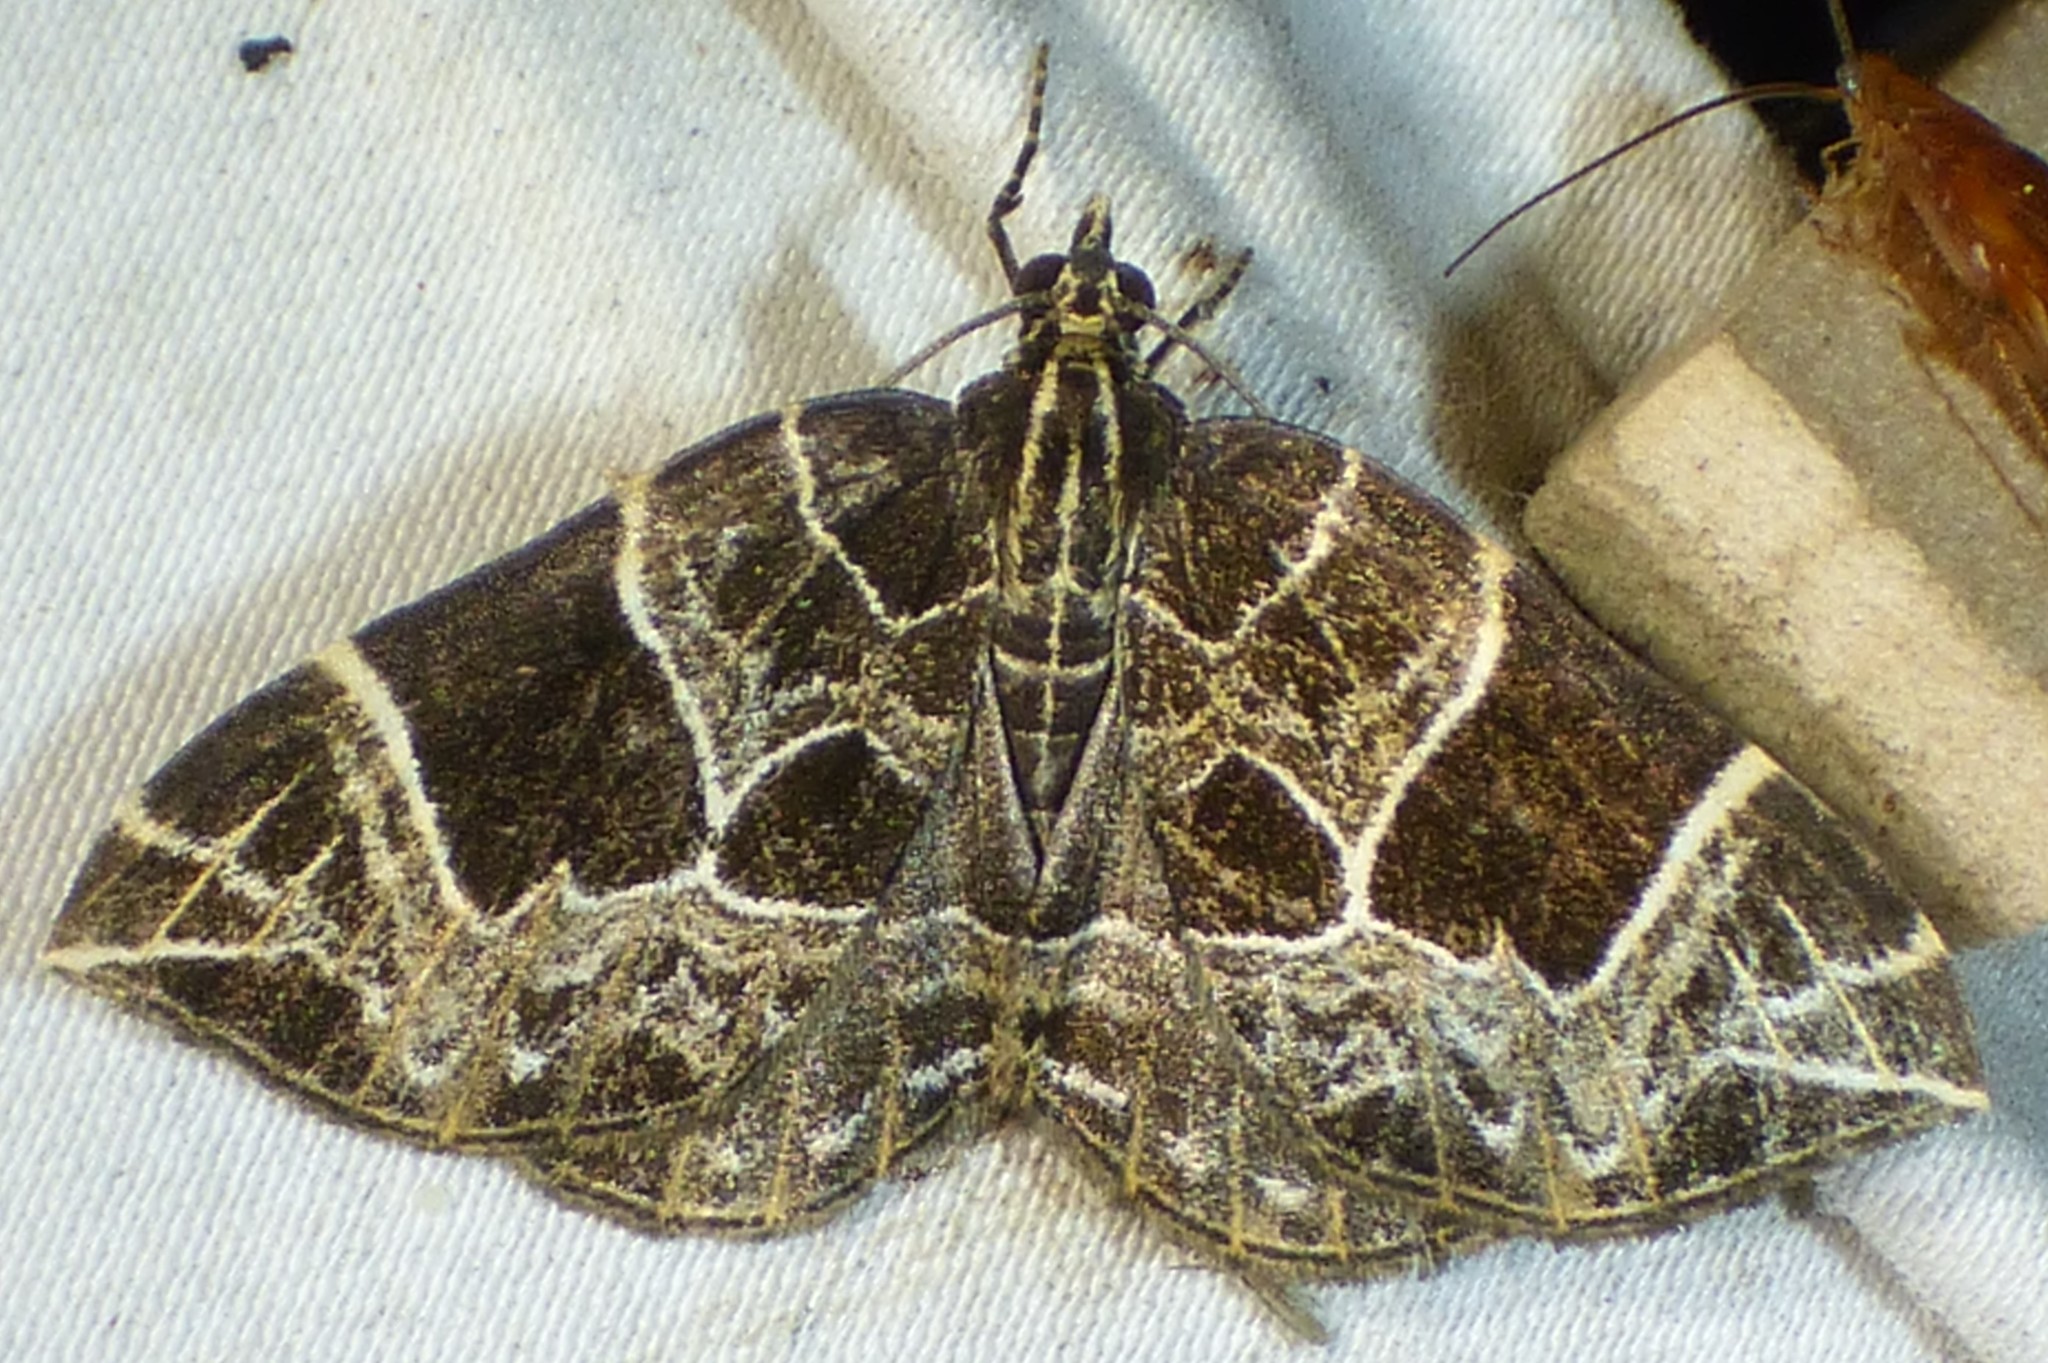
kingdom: Animalia
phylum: Arthropoda
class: Insecta
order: Lepidoptera
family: Geometridae
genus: Ecliptopera
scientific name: Ecliptopera atricolorata
